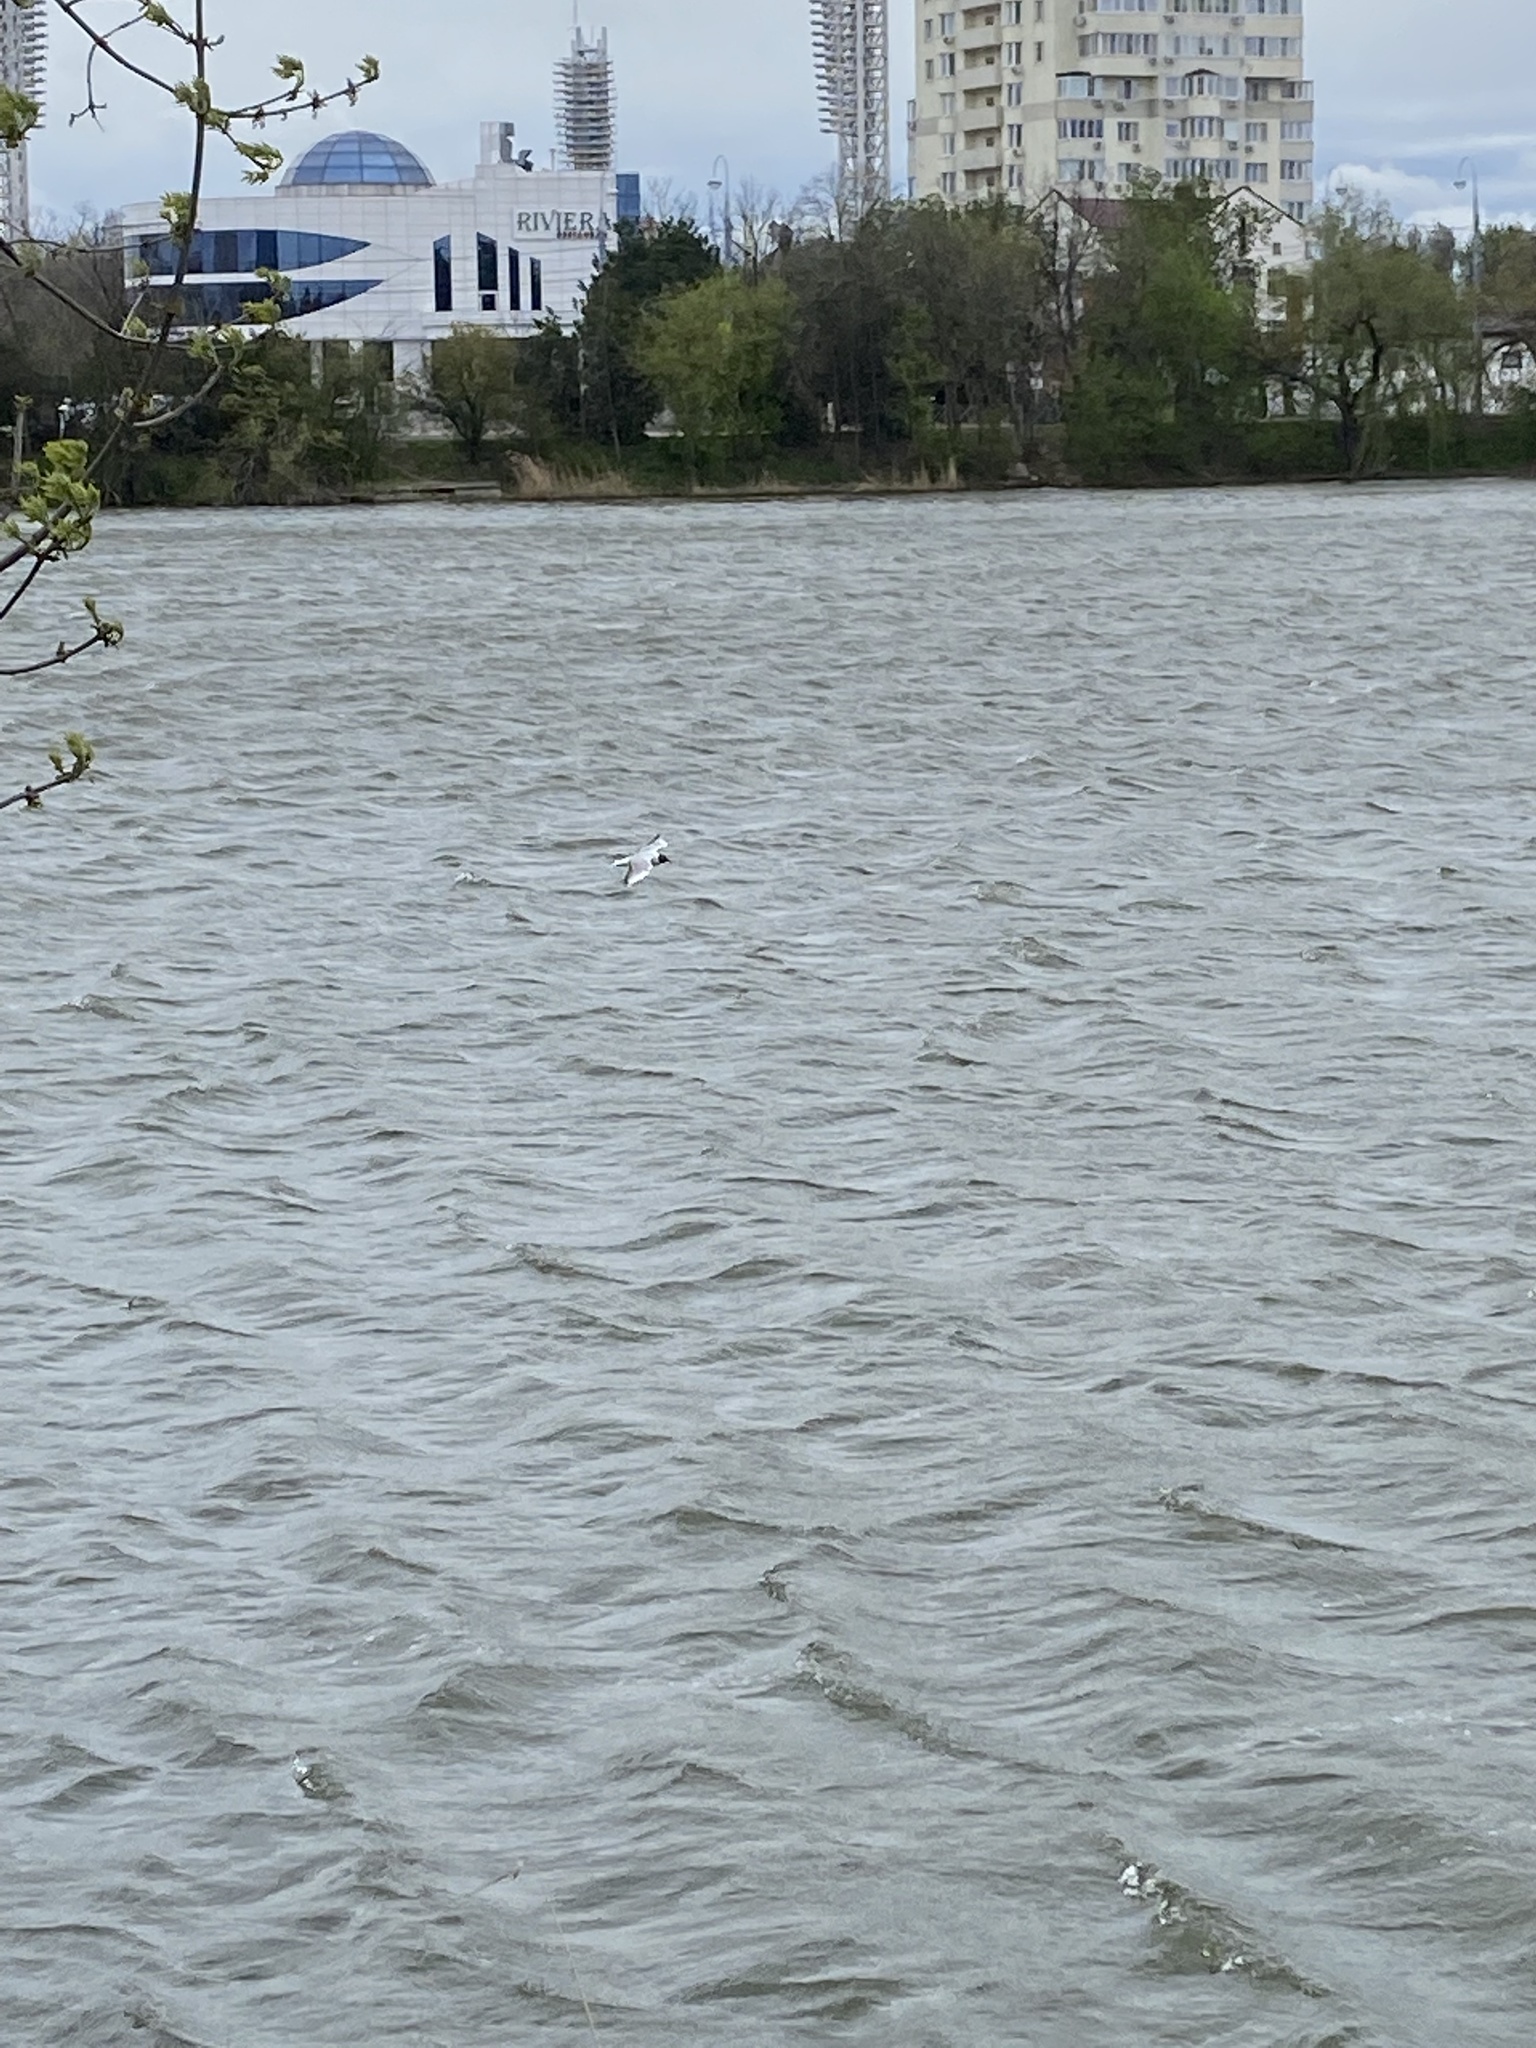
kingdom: Animalia
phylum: Chordata
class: Aves
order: Charadriiformes
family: Laridae
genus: Chroicocephalus
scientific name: Chroicocephalus ridibundus
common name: Black-headed gull
